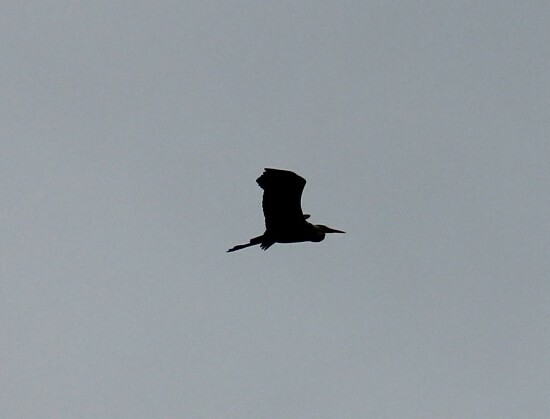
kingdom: Animalia
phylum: Chordata
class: Aves
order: Pelecaniformes
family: Ardeidae
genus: Ardea
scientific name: Ardea cinerea
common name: Grey heron
